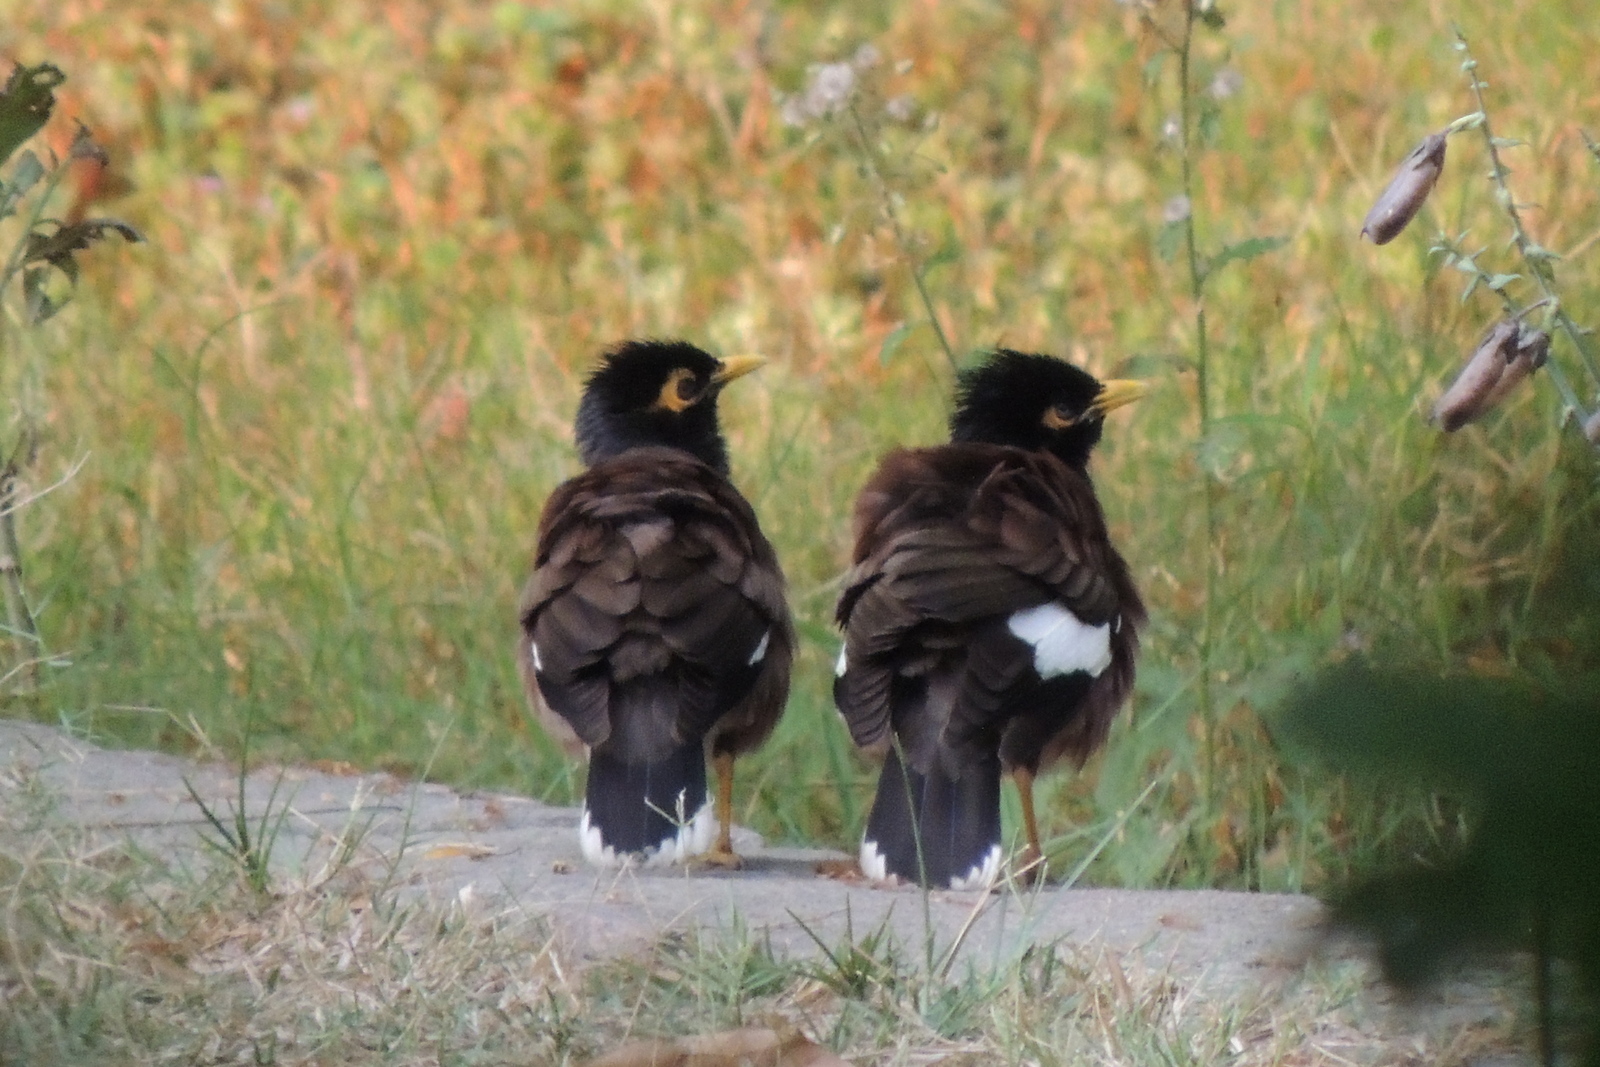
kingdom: Animalia
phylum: Chordata
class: Aves
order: Passeriformes
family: Sturnidae
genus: Acridotheres
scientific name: Acridotheres tristis
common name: Common myna
